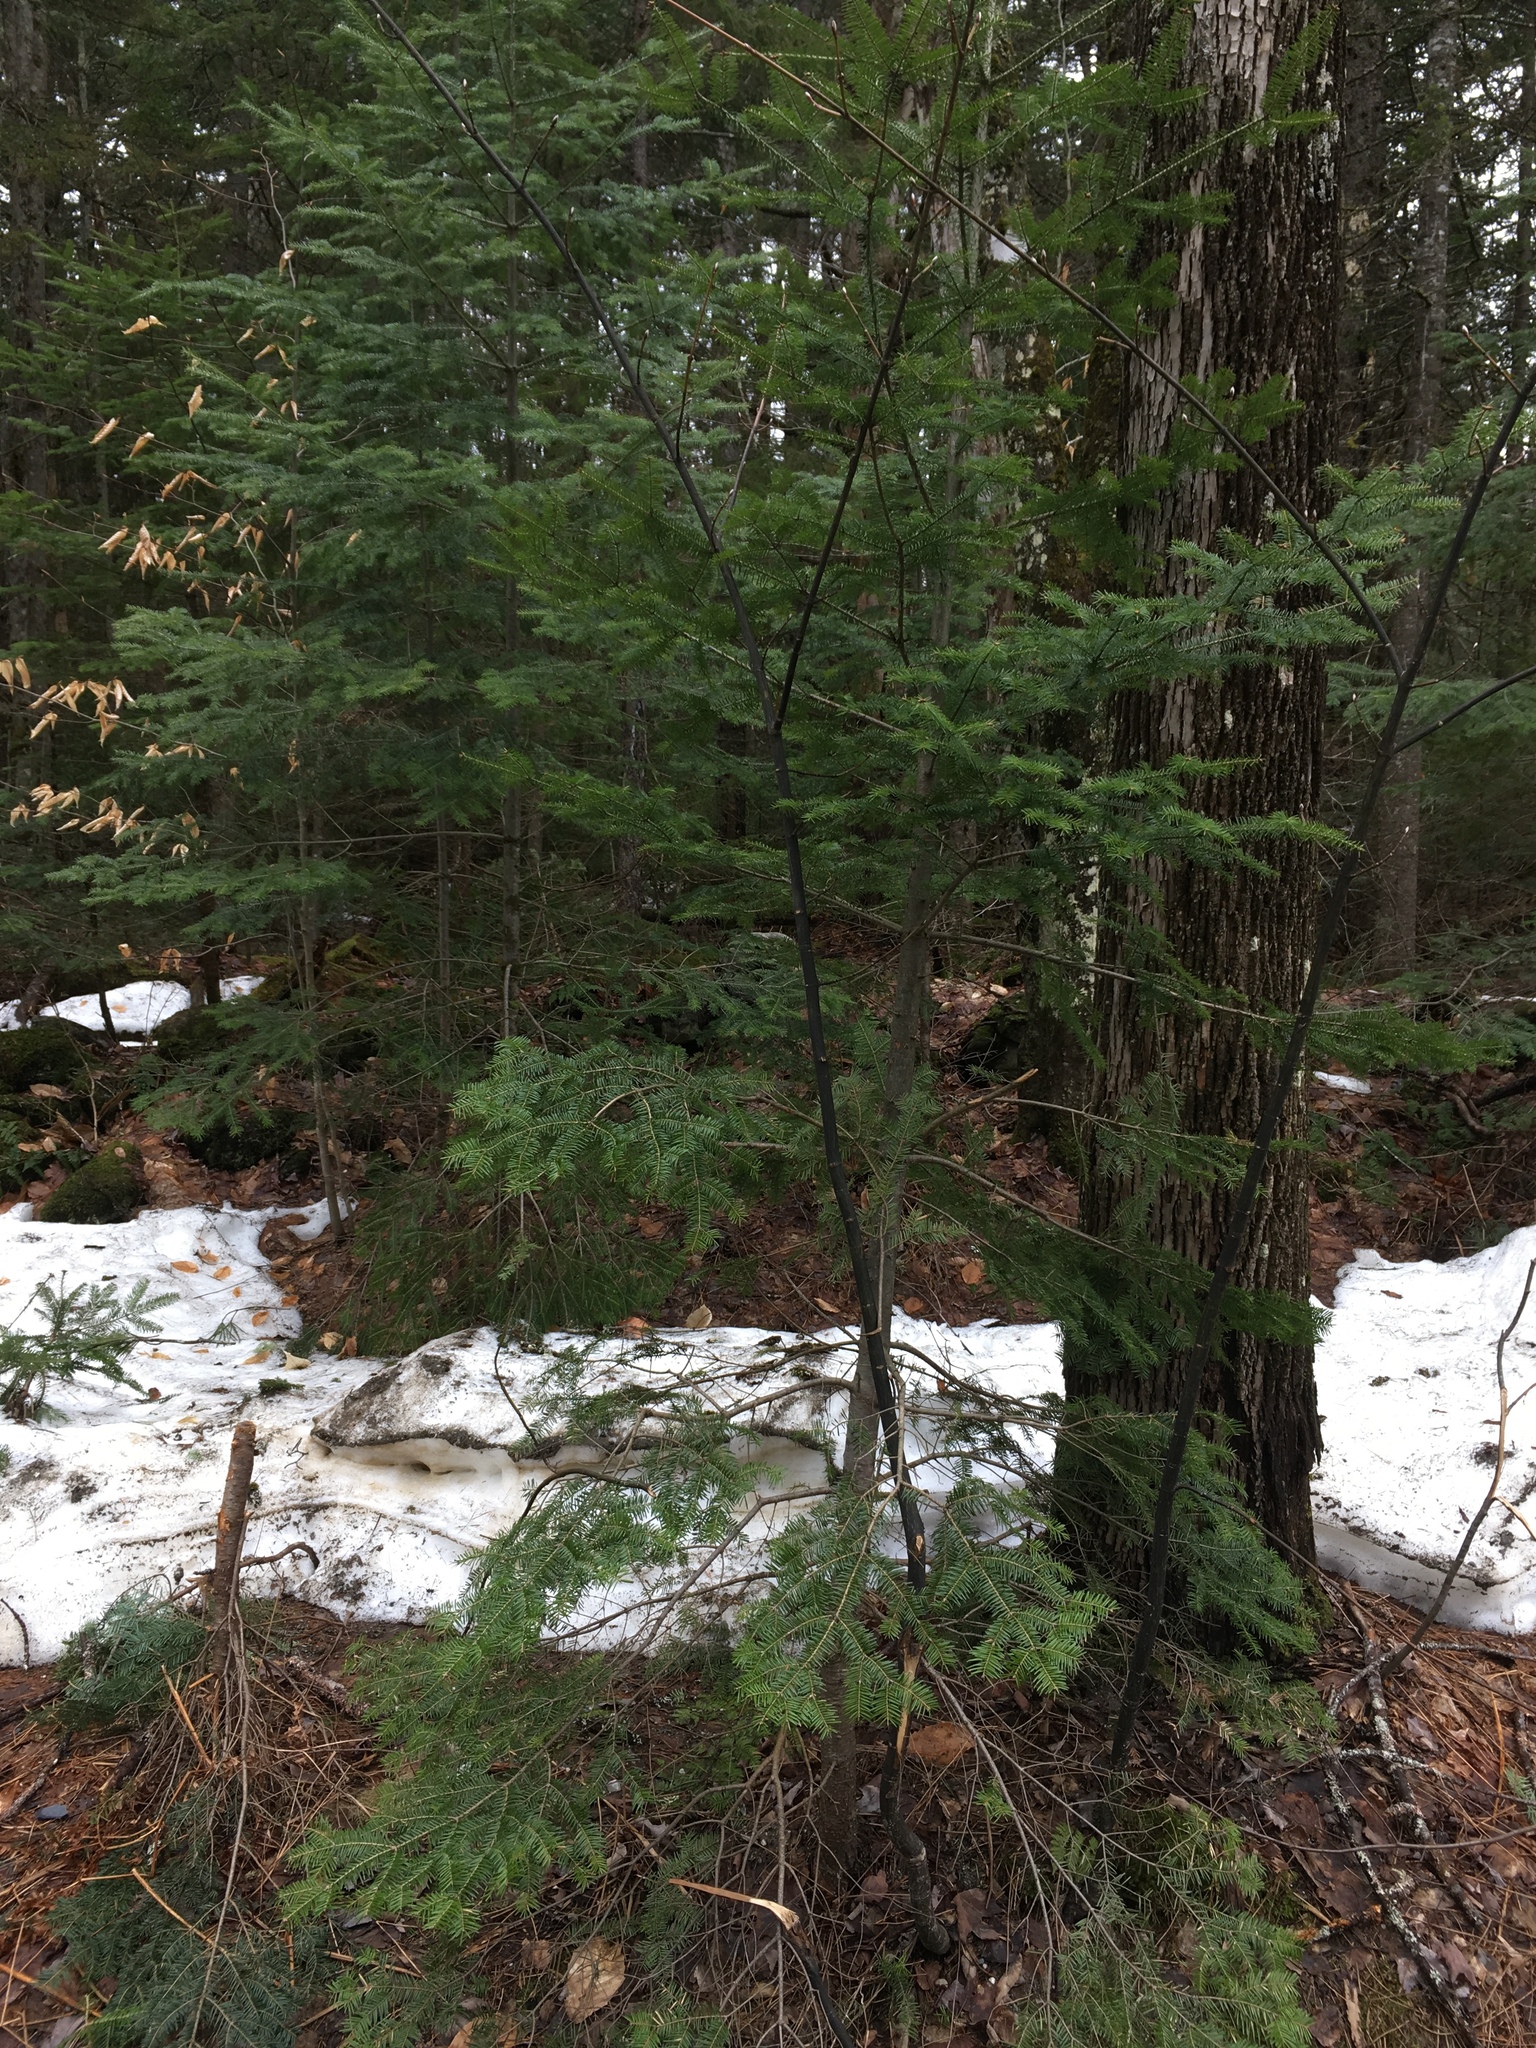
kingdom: Plantae
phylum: Tracheophyta
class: Pinopsida
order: Pinales
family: Pinaceae
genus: Abies
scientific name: Abies balsamea
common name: Balsam fir
